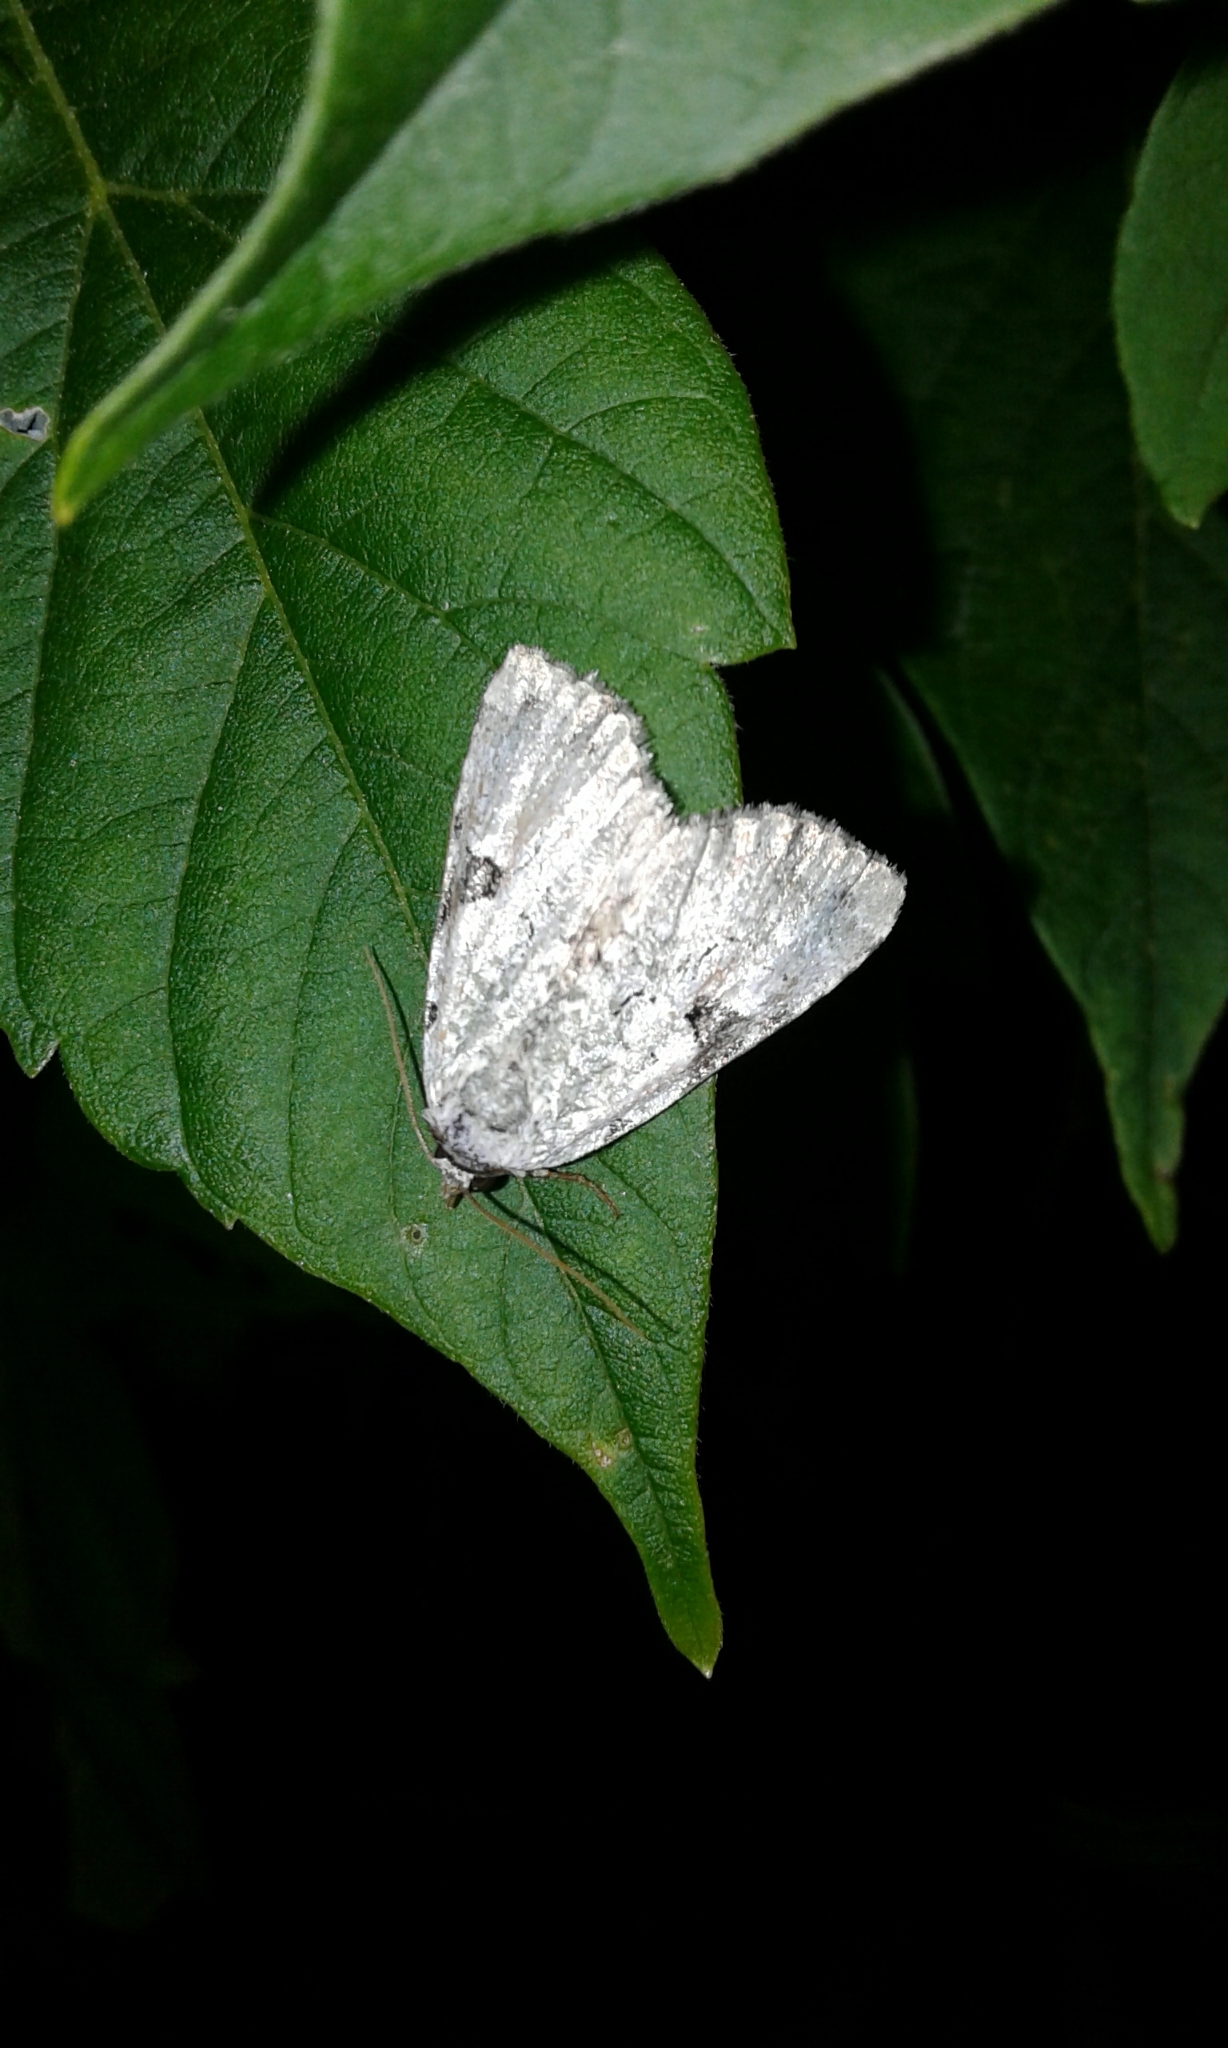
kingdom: Animalia
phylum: Arthropoda
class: Insecta
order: Lepidoptera
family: Noctuidae
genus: Leuconycta
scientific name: Leuconycta diphteroides
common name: Green leuconycta moth
